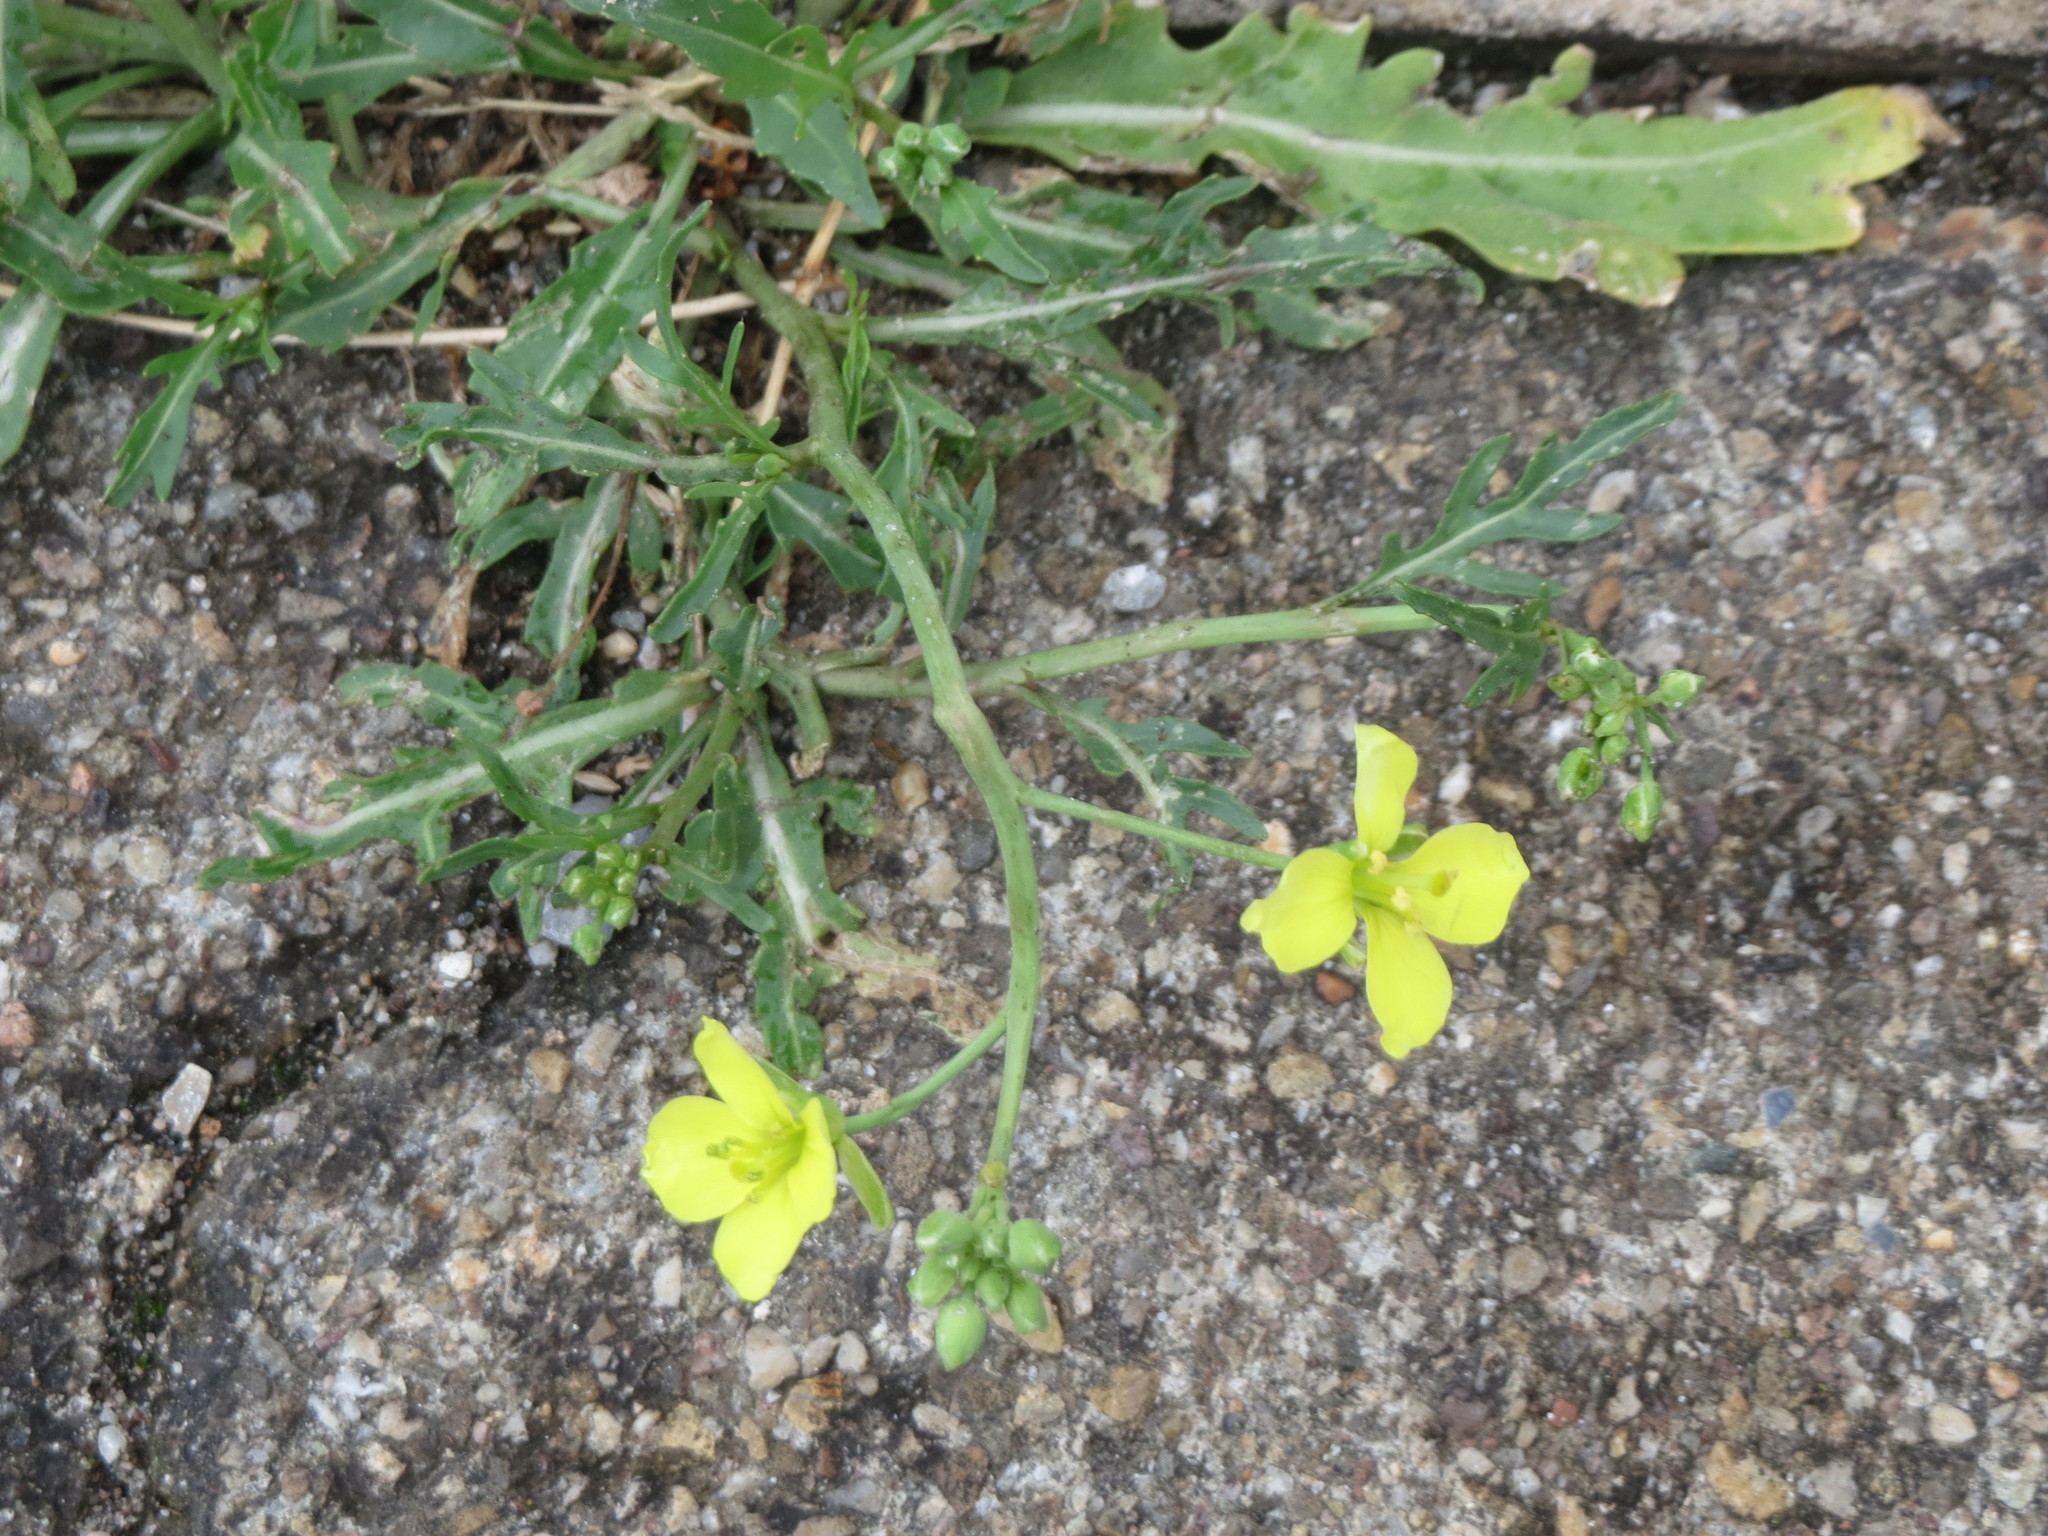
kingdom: Plantae
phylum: Tracheophyta
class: Magnoliopsida
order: Brassicales
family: Brassicaceae
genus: Diplotaxis
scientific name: Diplotaxis tenuifolia
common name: Perennial wall-rocket
